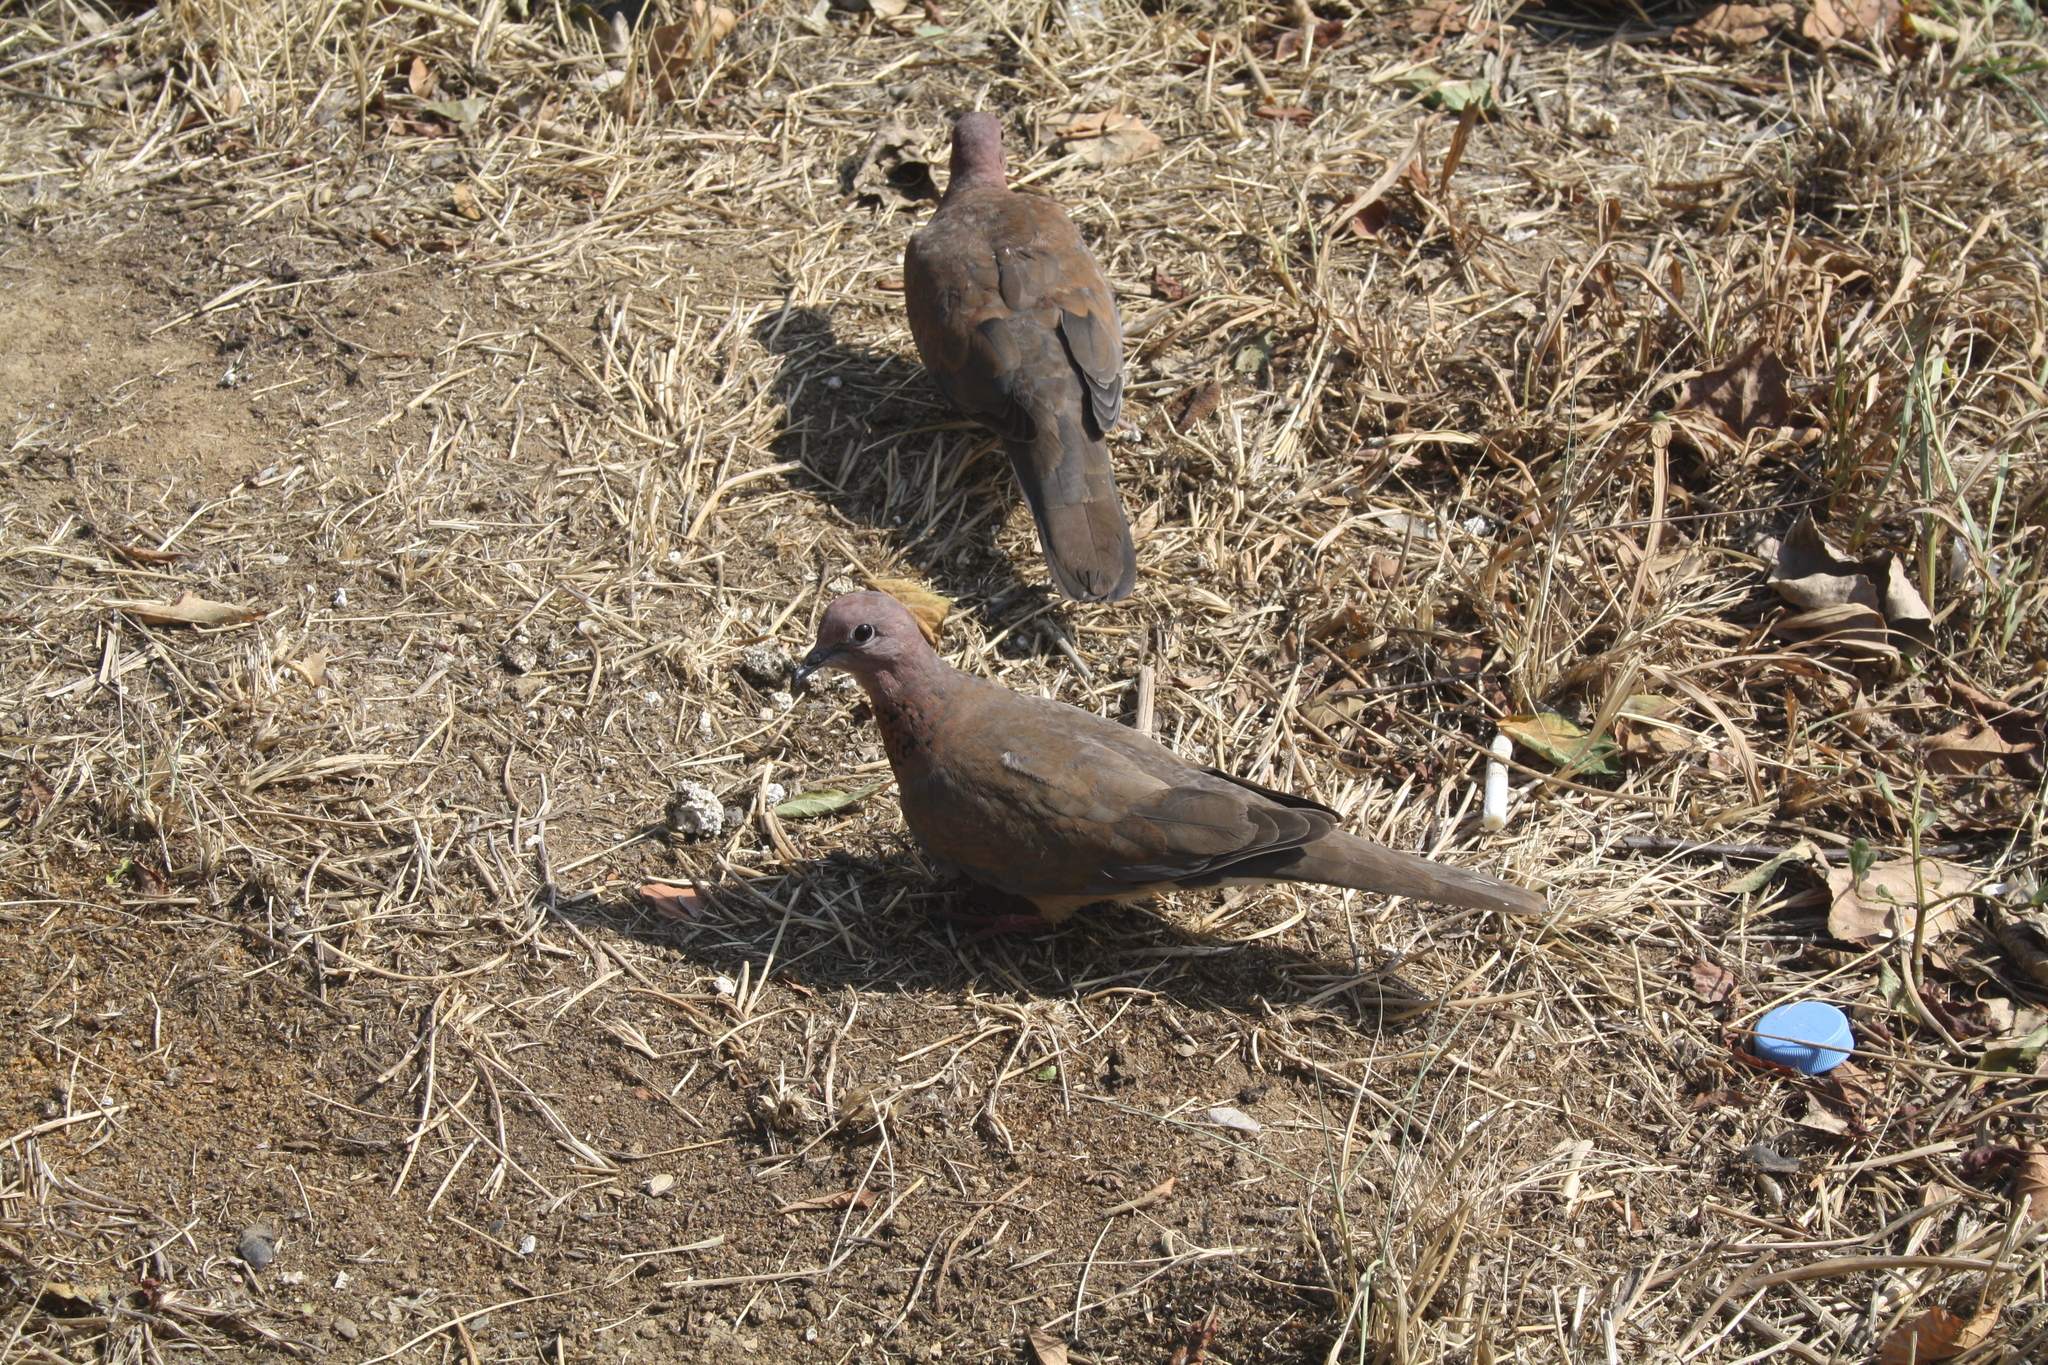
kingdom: Animalia
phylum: Chordata
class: Aves
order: Columbiformes
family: Columbidae
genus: Spilopelia
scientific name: Spilopelia senegalensis
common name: Laughing dove
